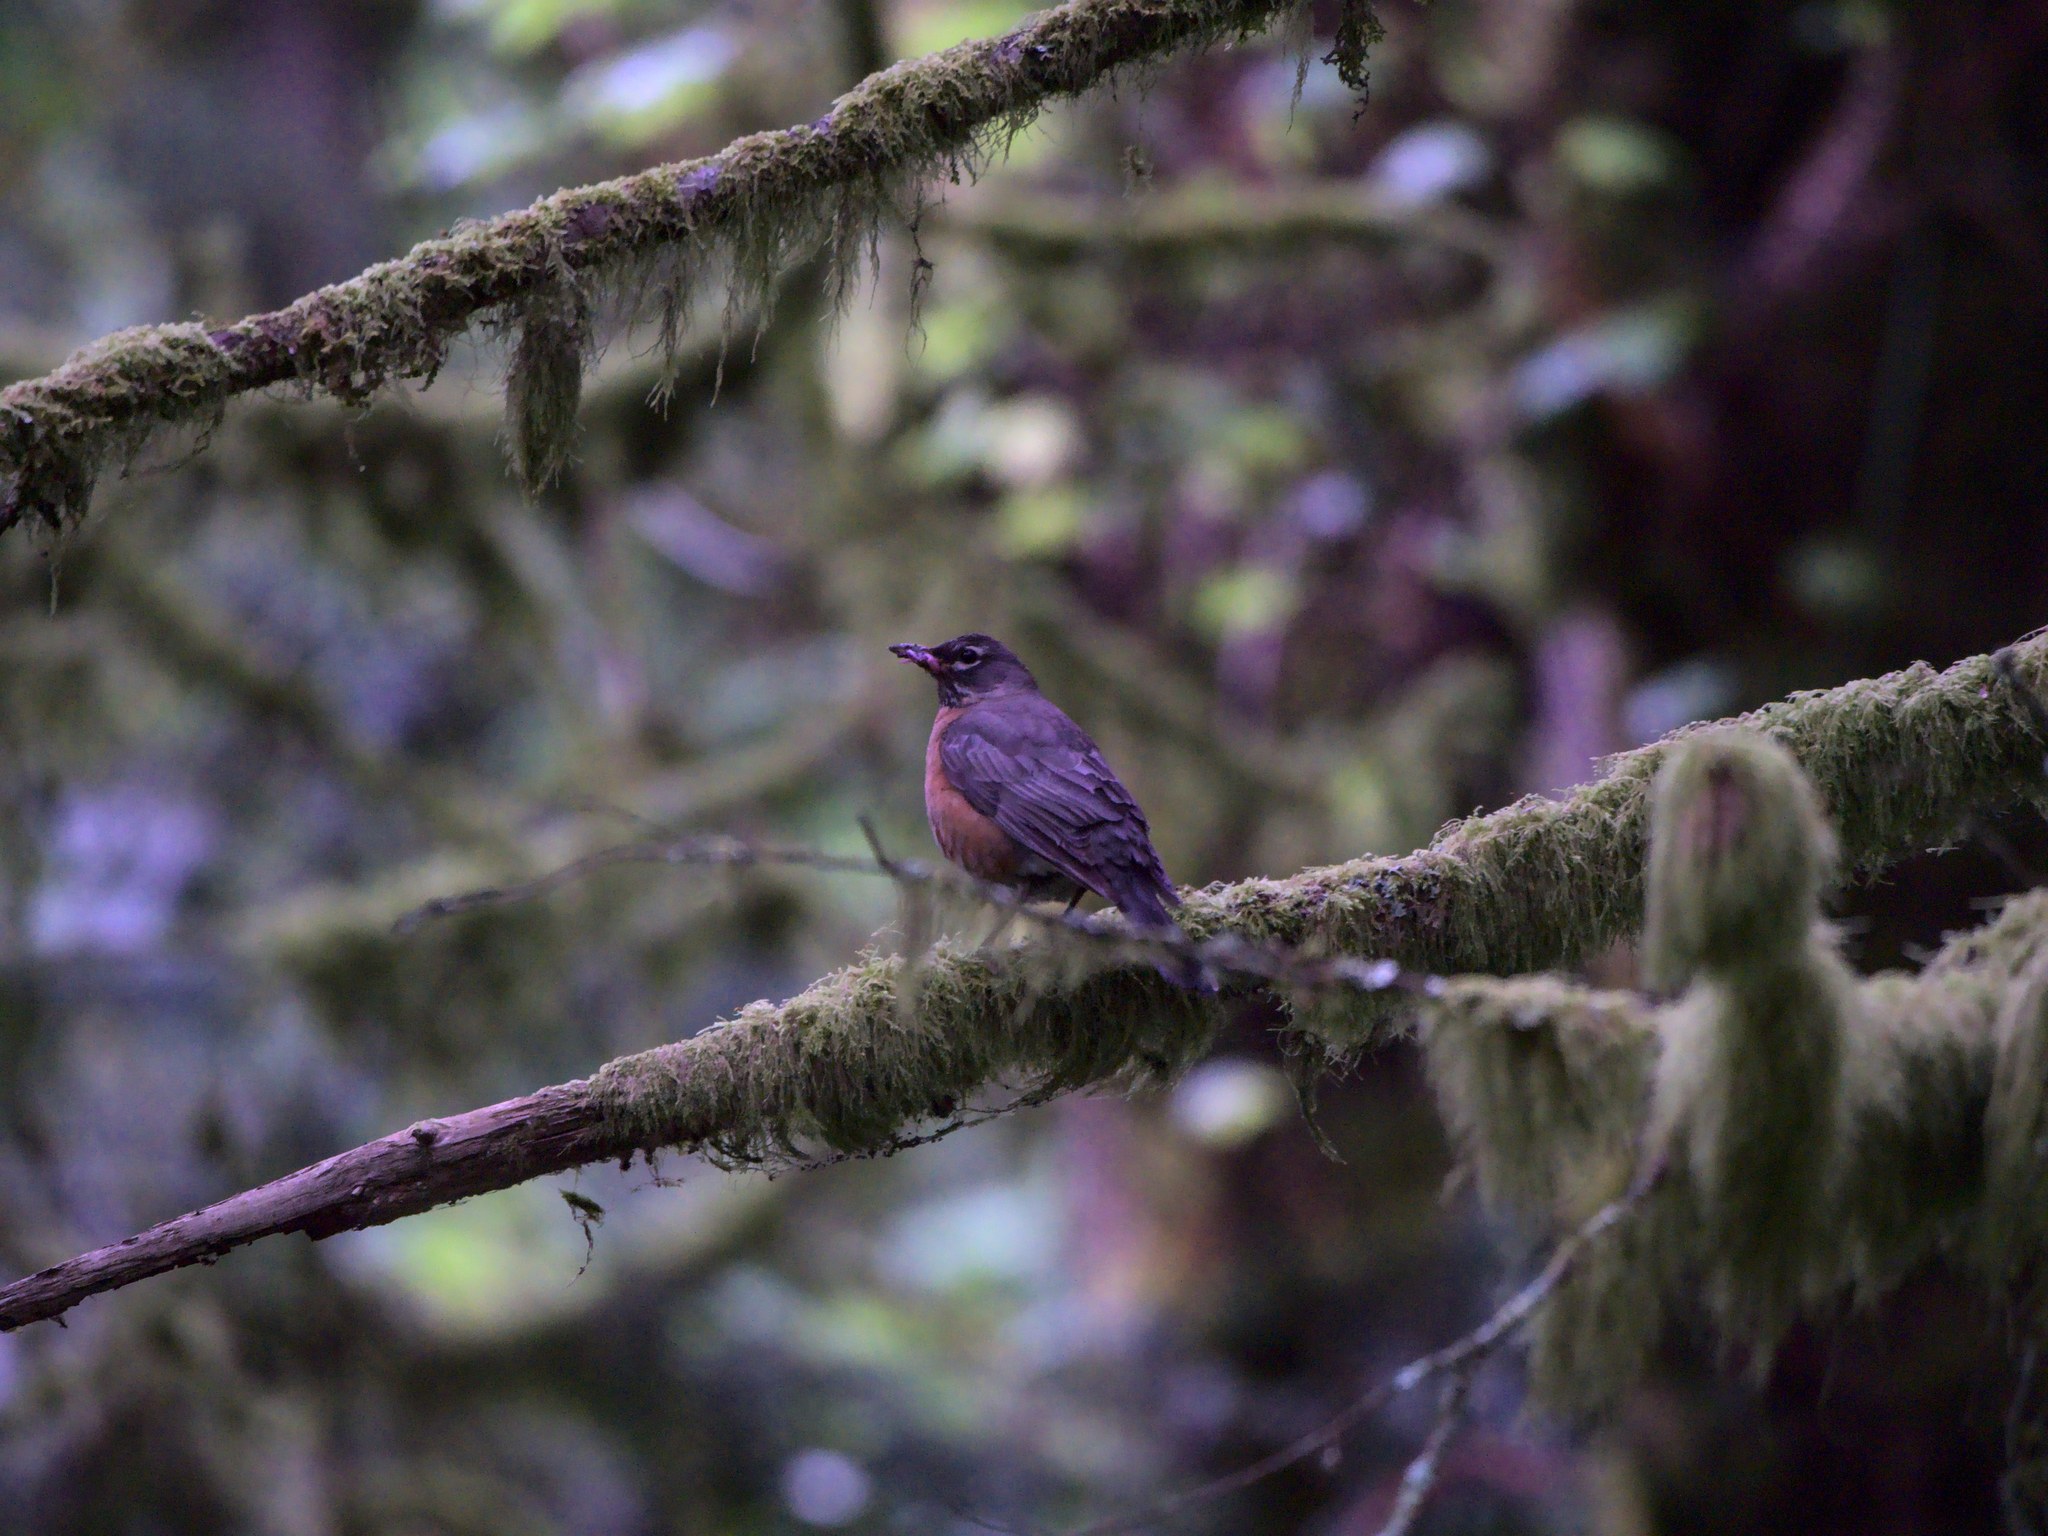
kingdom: Animalia
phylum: Chordata
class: Aves
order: Passeriformes
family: Turdidae
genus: Turdus
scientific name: Turdus migratorius
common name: American robin
